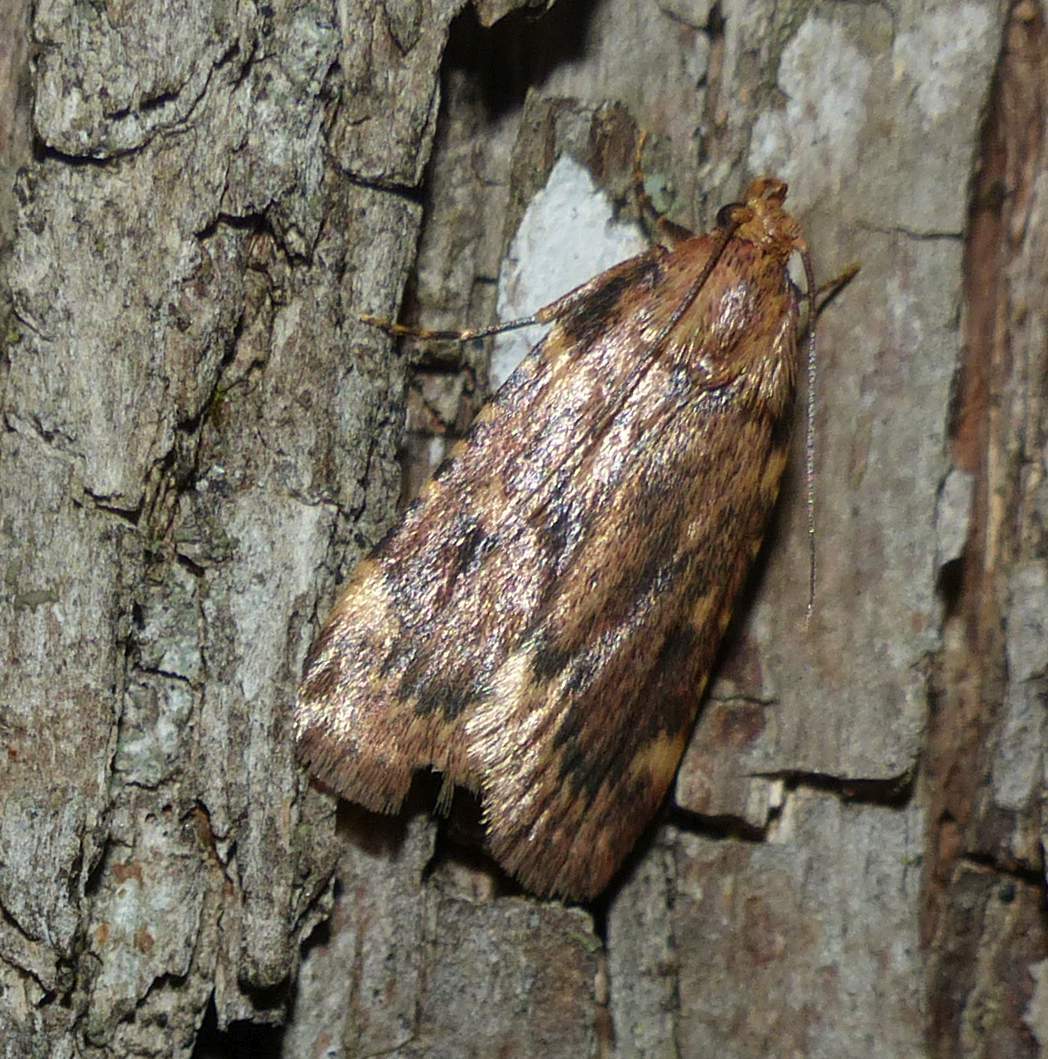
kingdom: Animalia
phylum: Arthropoda
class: Insecta
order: Lepidoptera
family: Pyralidae
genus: Aglossa
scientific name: Aglossa cuprina
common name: Grease moth
